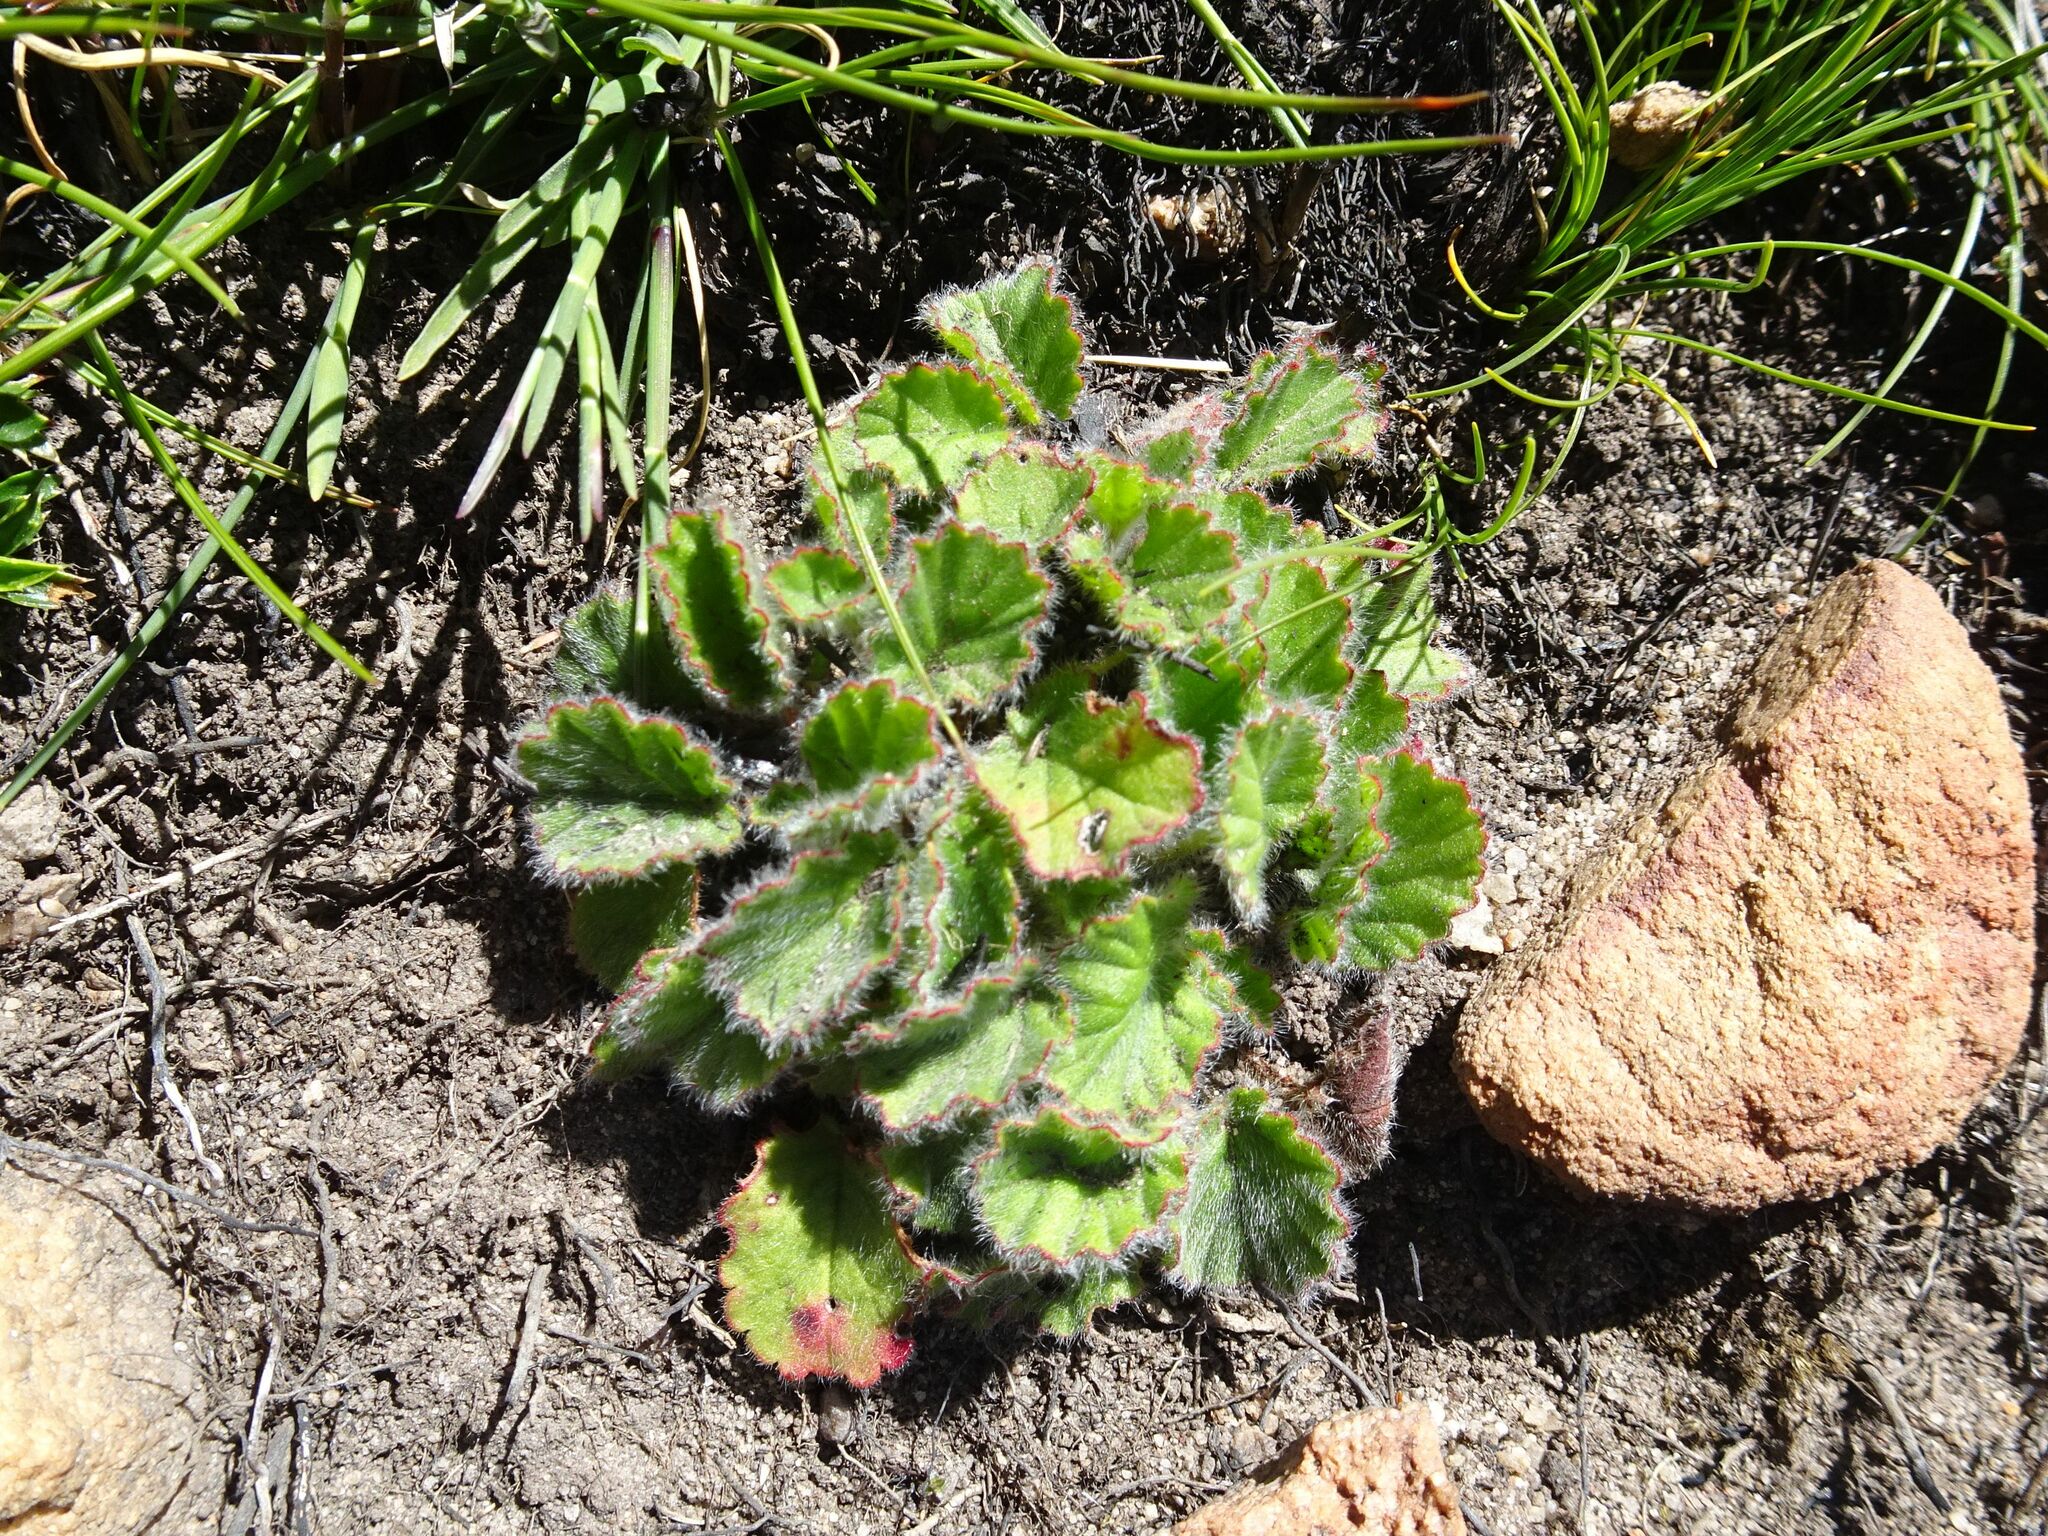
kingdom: Plantae
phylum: Tracheophyta
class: Magnoliopsida
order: Geraniales
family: Geraniaceae
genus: Pelargonium
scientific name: Pelargonium ovale
